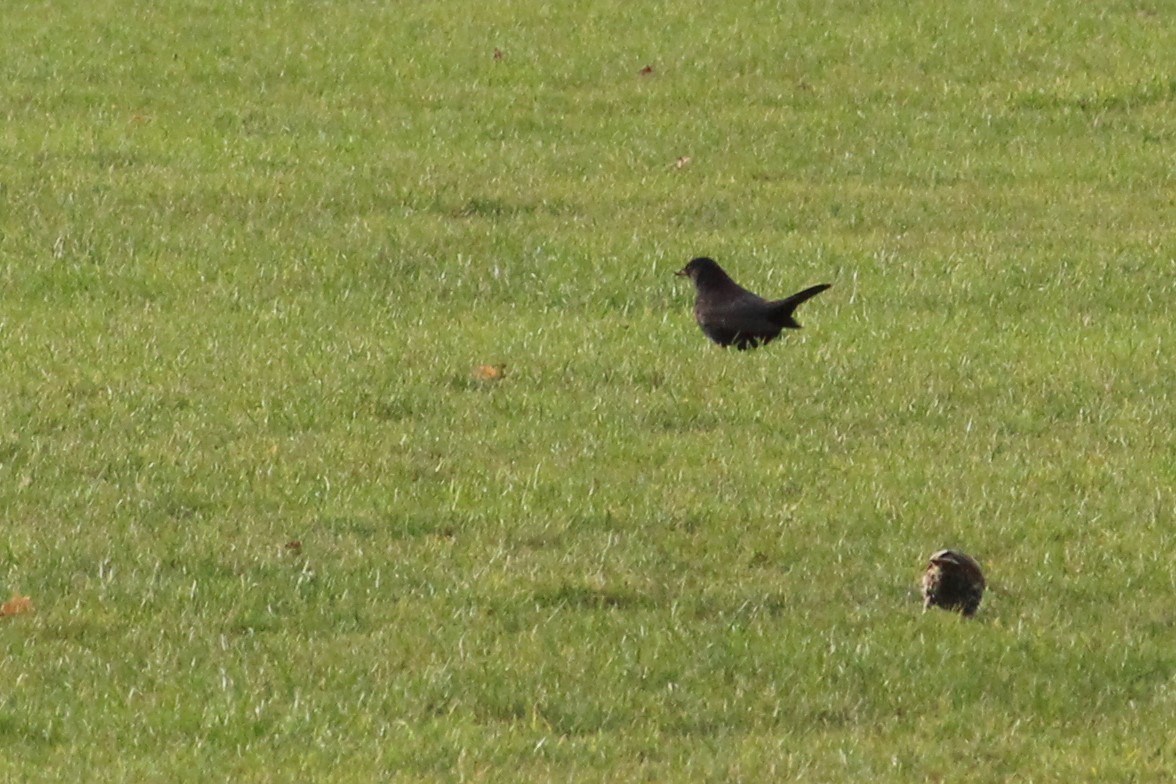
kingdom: Animalia
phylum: Chordata
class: Aves
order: Passeriformes
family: Turdidae
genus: Turdus
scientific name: Turdus merula
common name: Common blackbird
